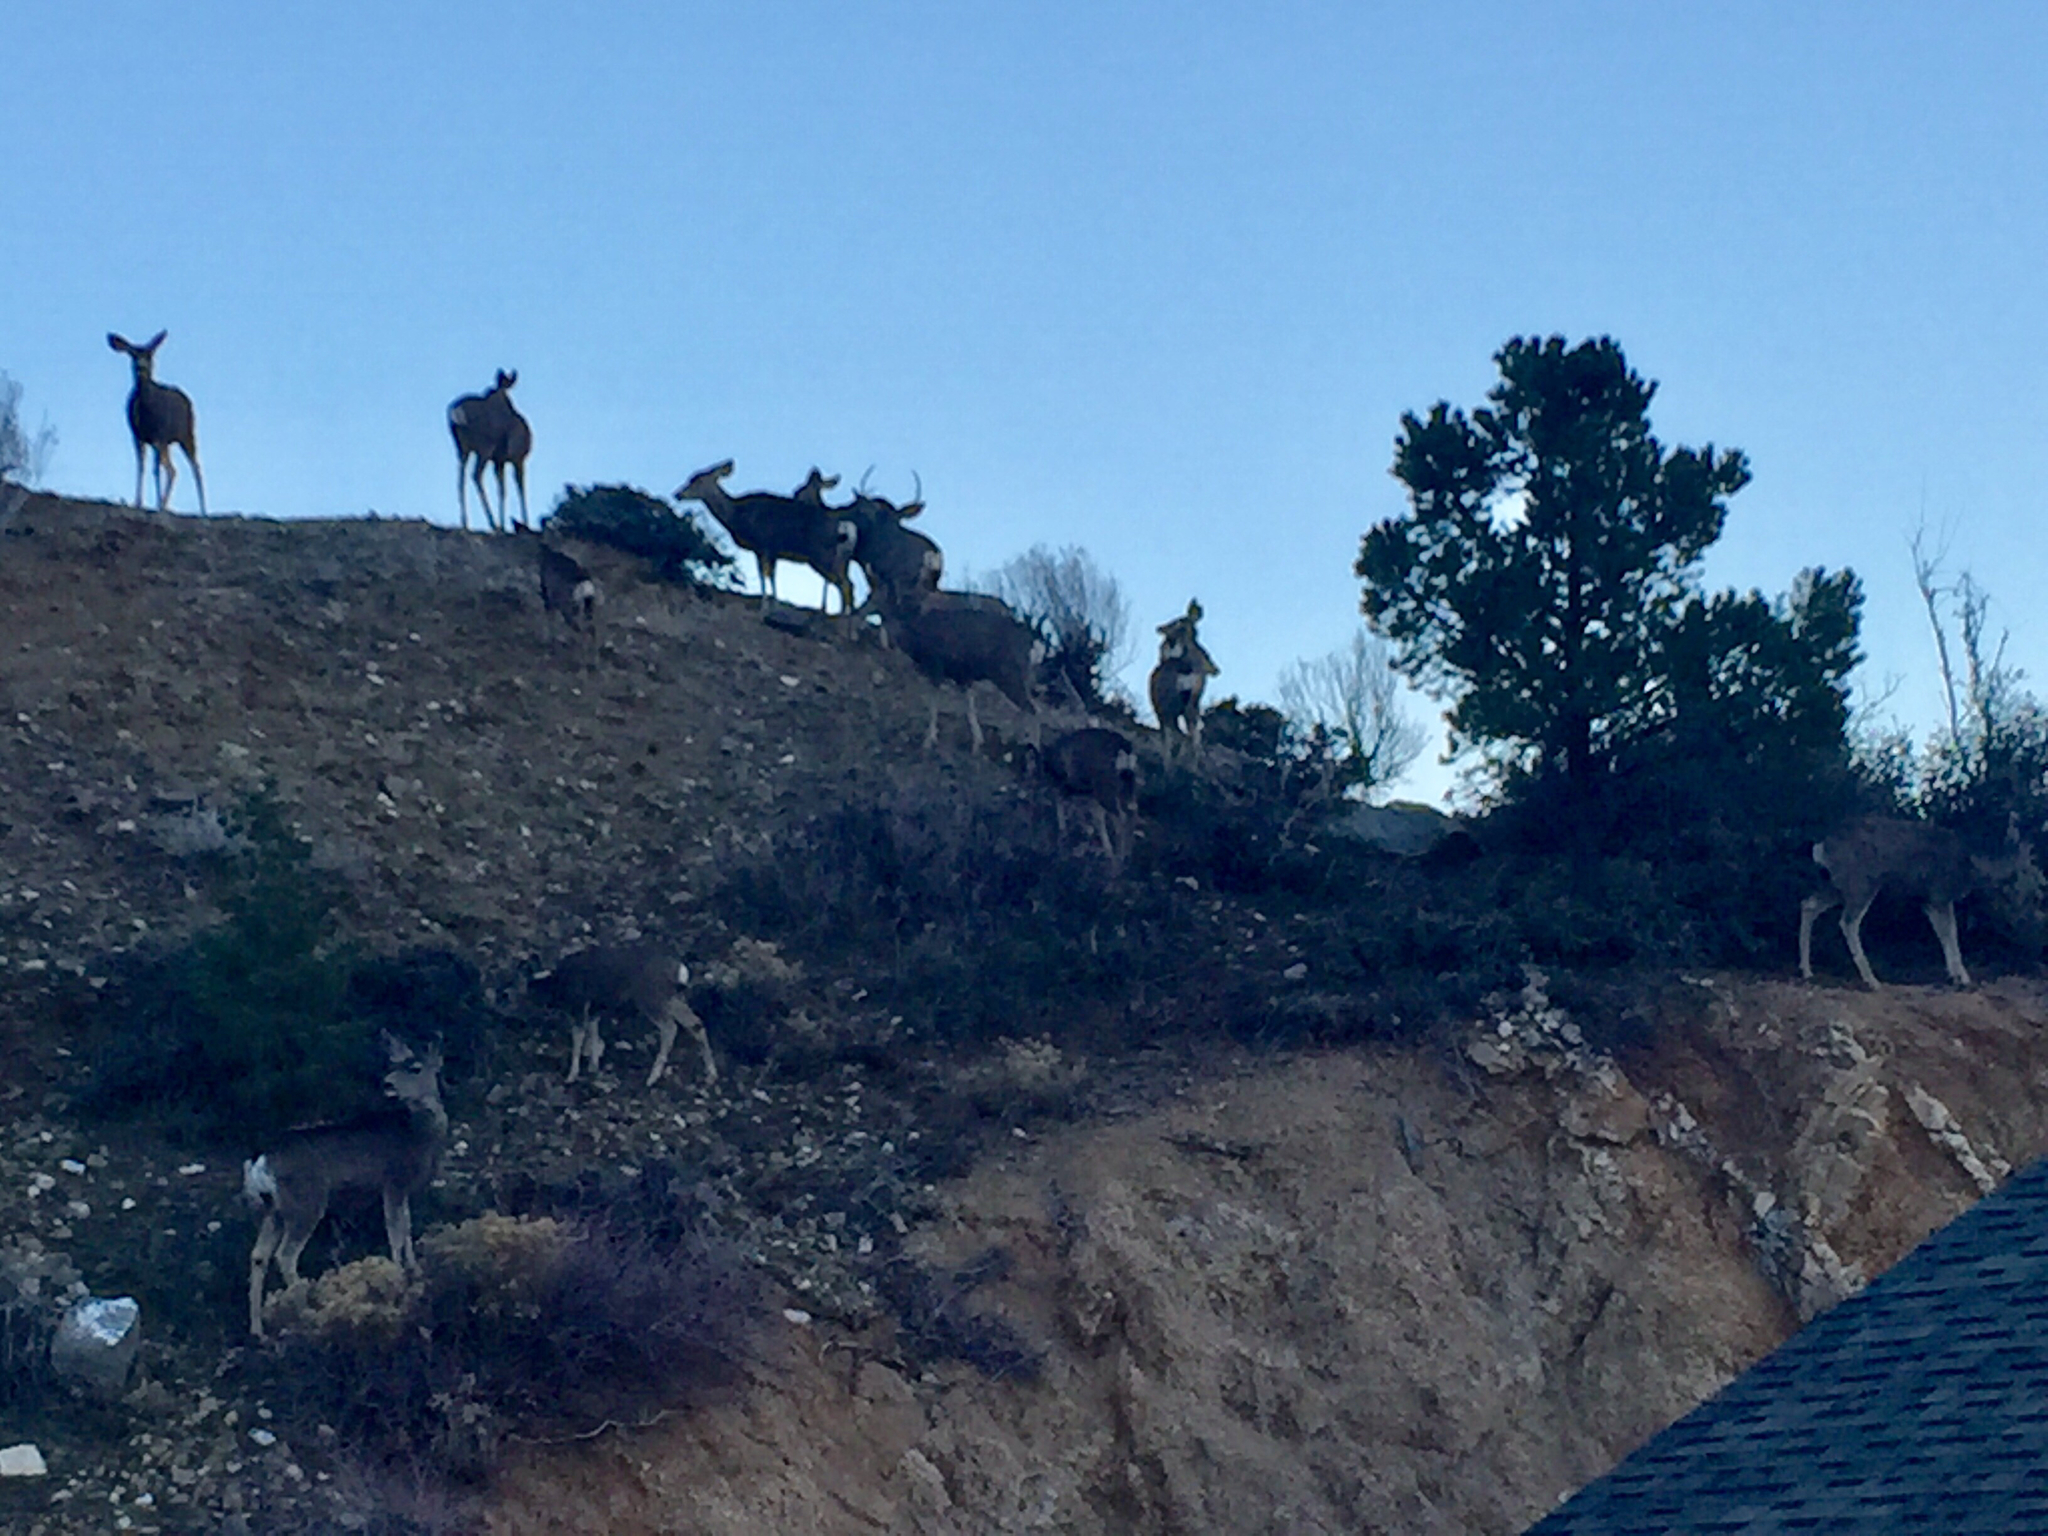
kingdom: Animalia
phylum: Chordata
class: Mammalia
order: Artiodactyla
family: Cervidae
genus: Odocoileus
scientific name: Odocoileus hemionus
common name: Mule deer
